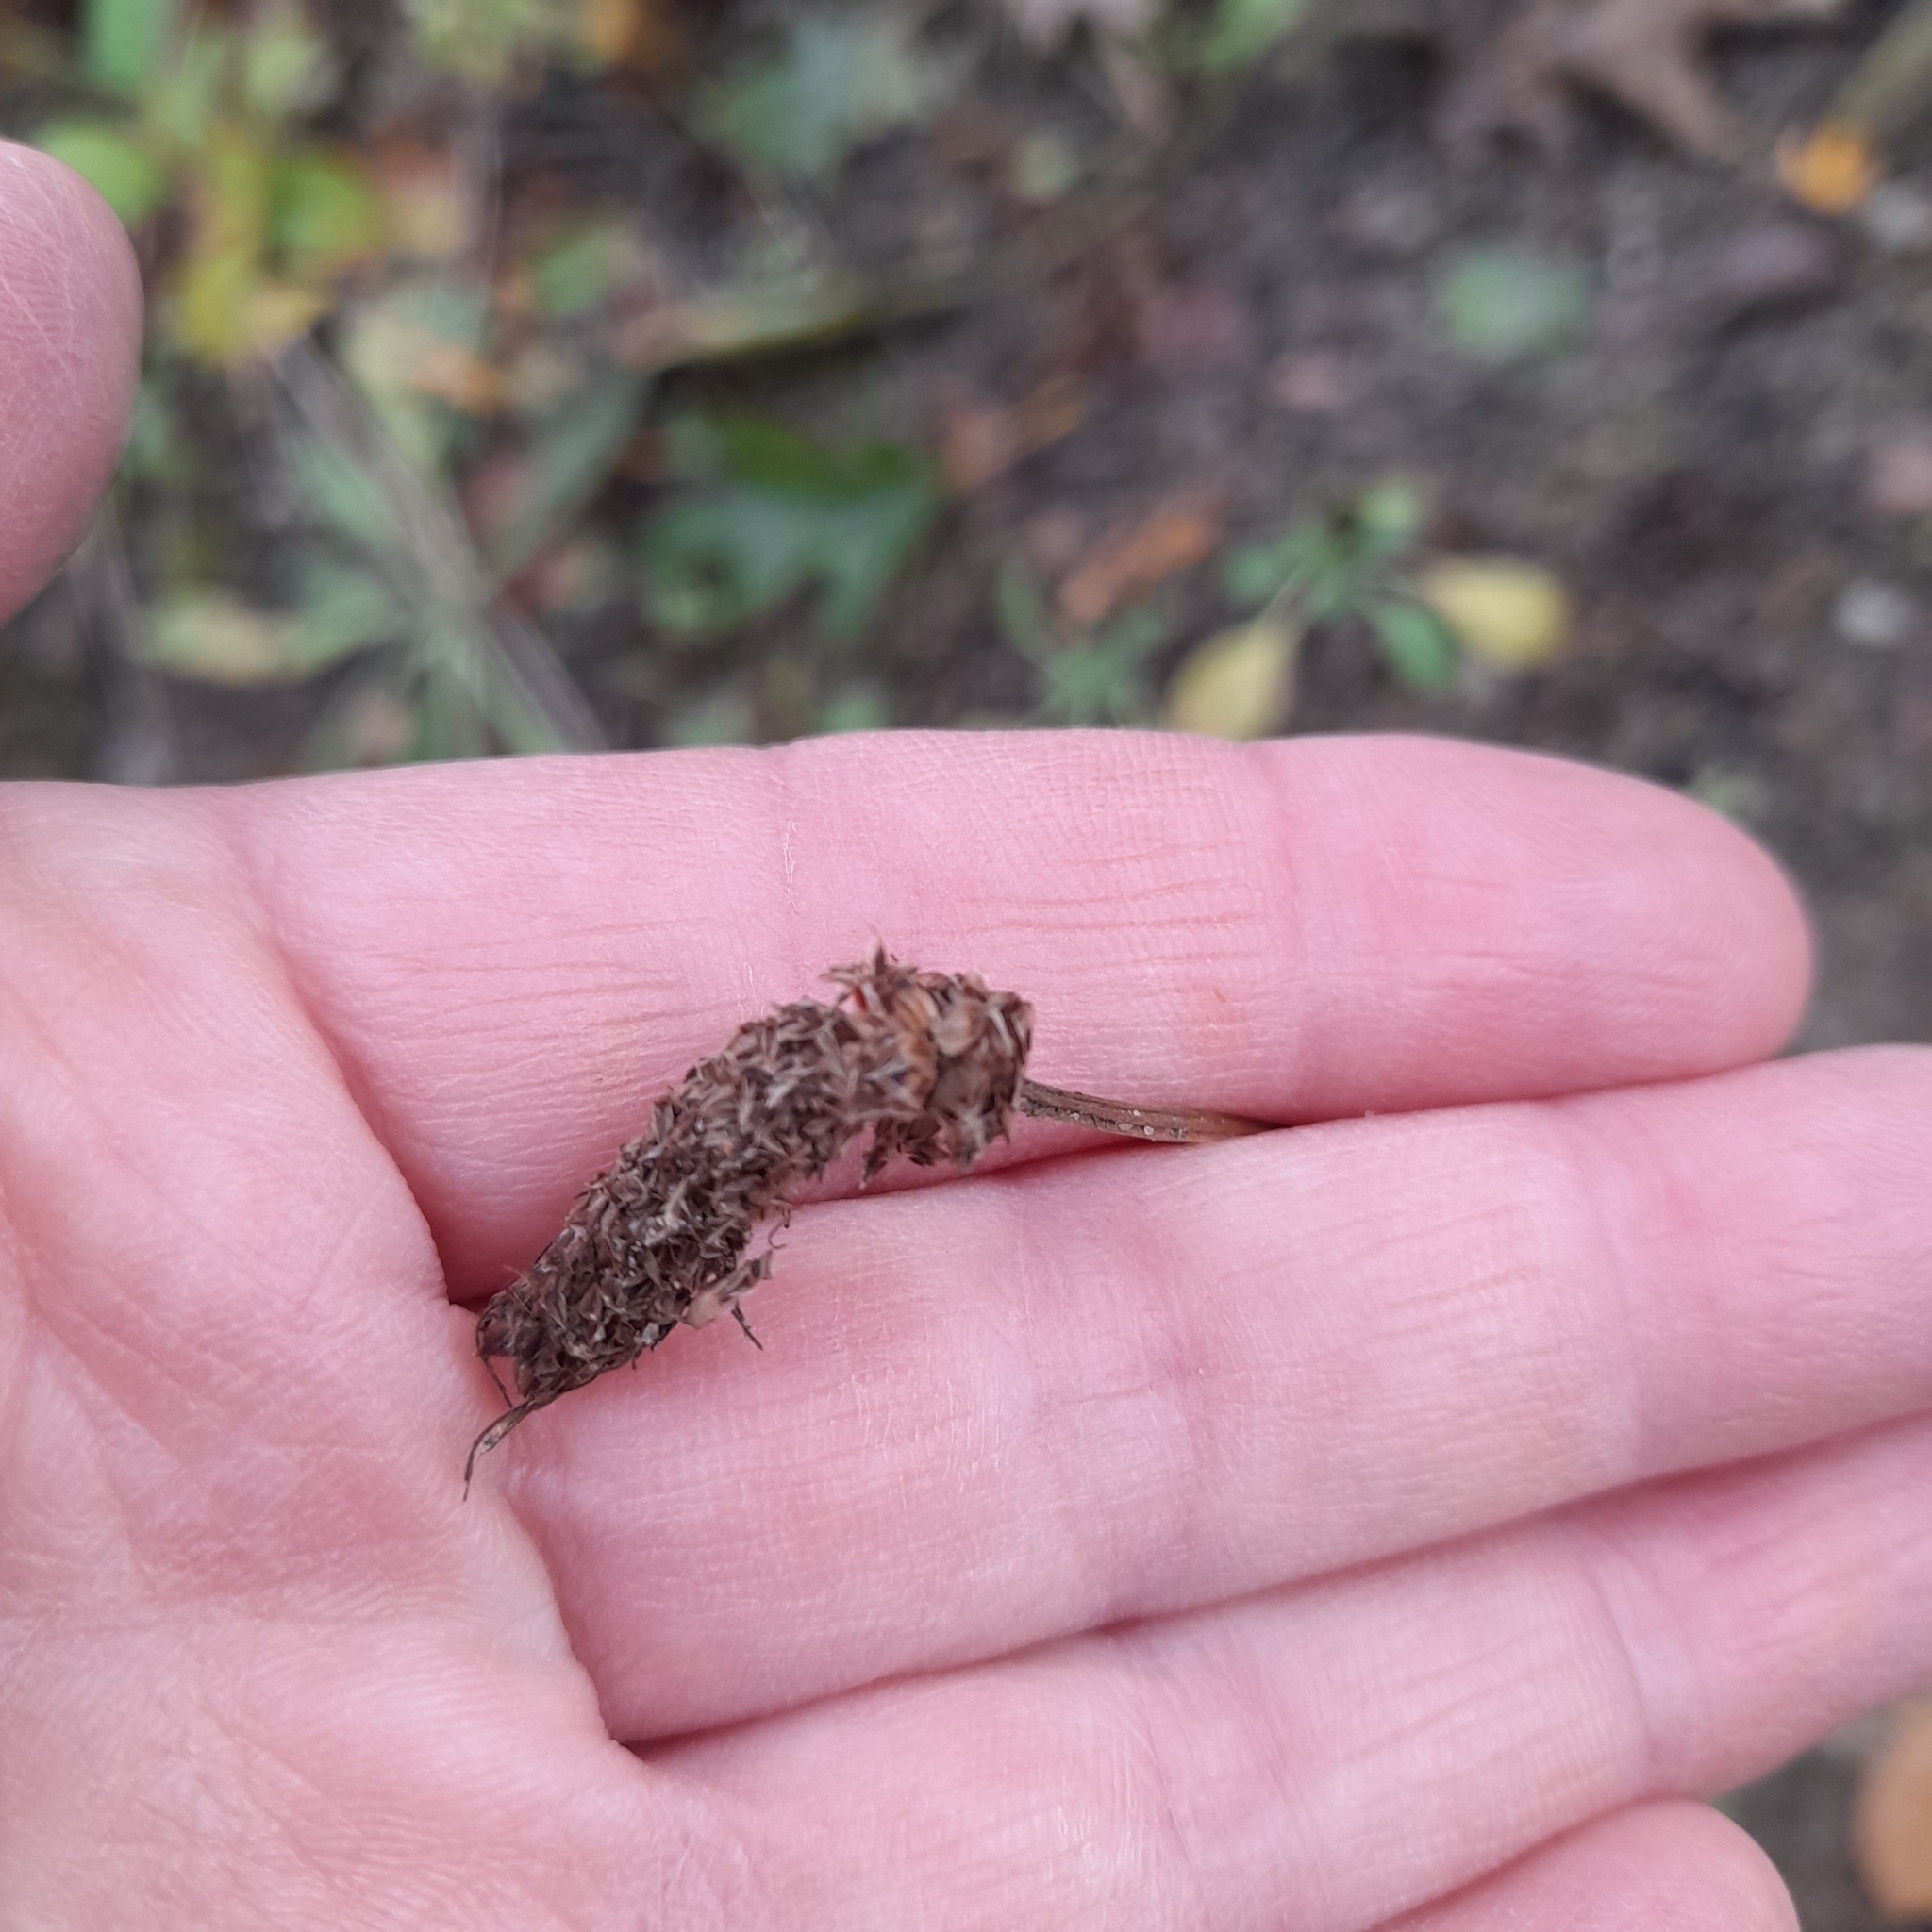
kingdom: Plantae
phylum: Tracheophyta
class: Magnoliopsida
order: Lamiales
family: Plantaginaceae
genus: Plantago
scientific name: Plantago lanceolata
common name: Ribwort plantain
